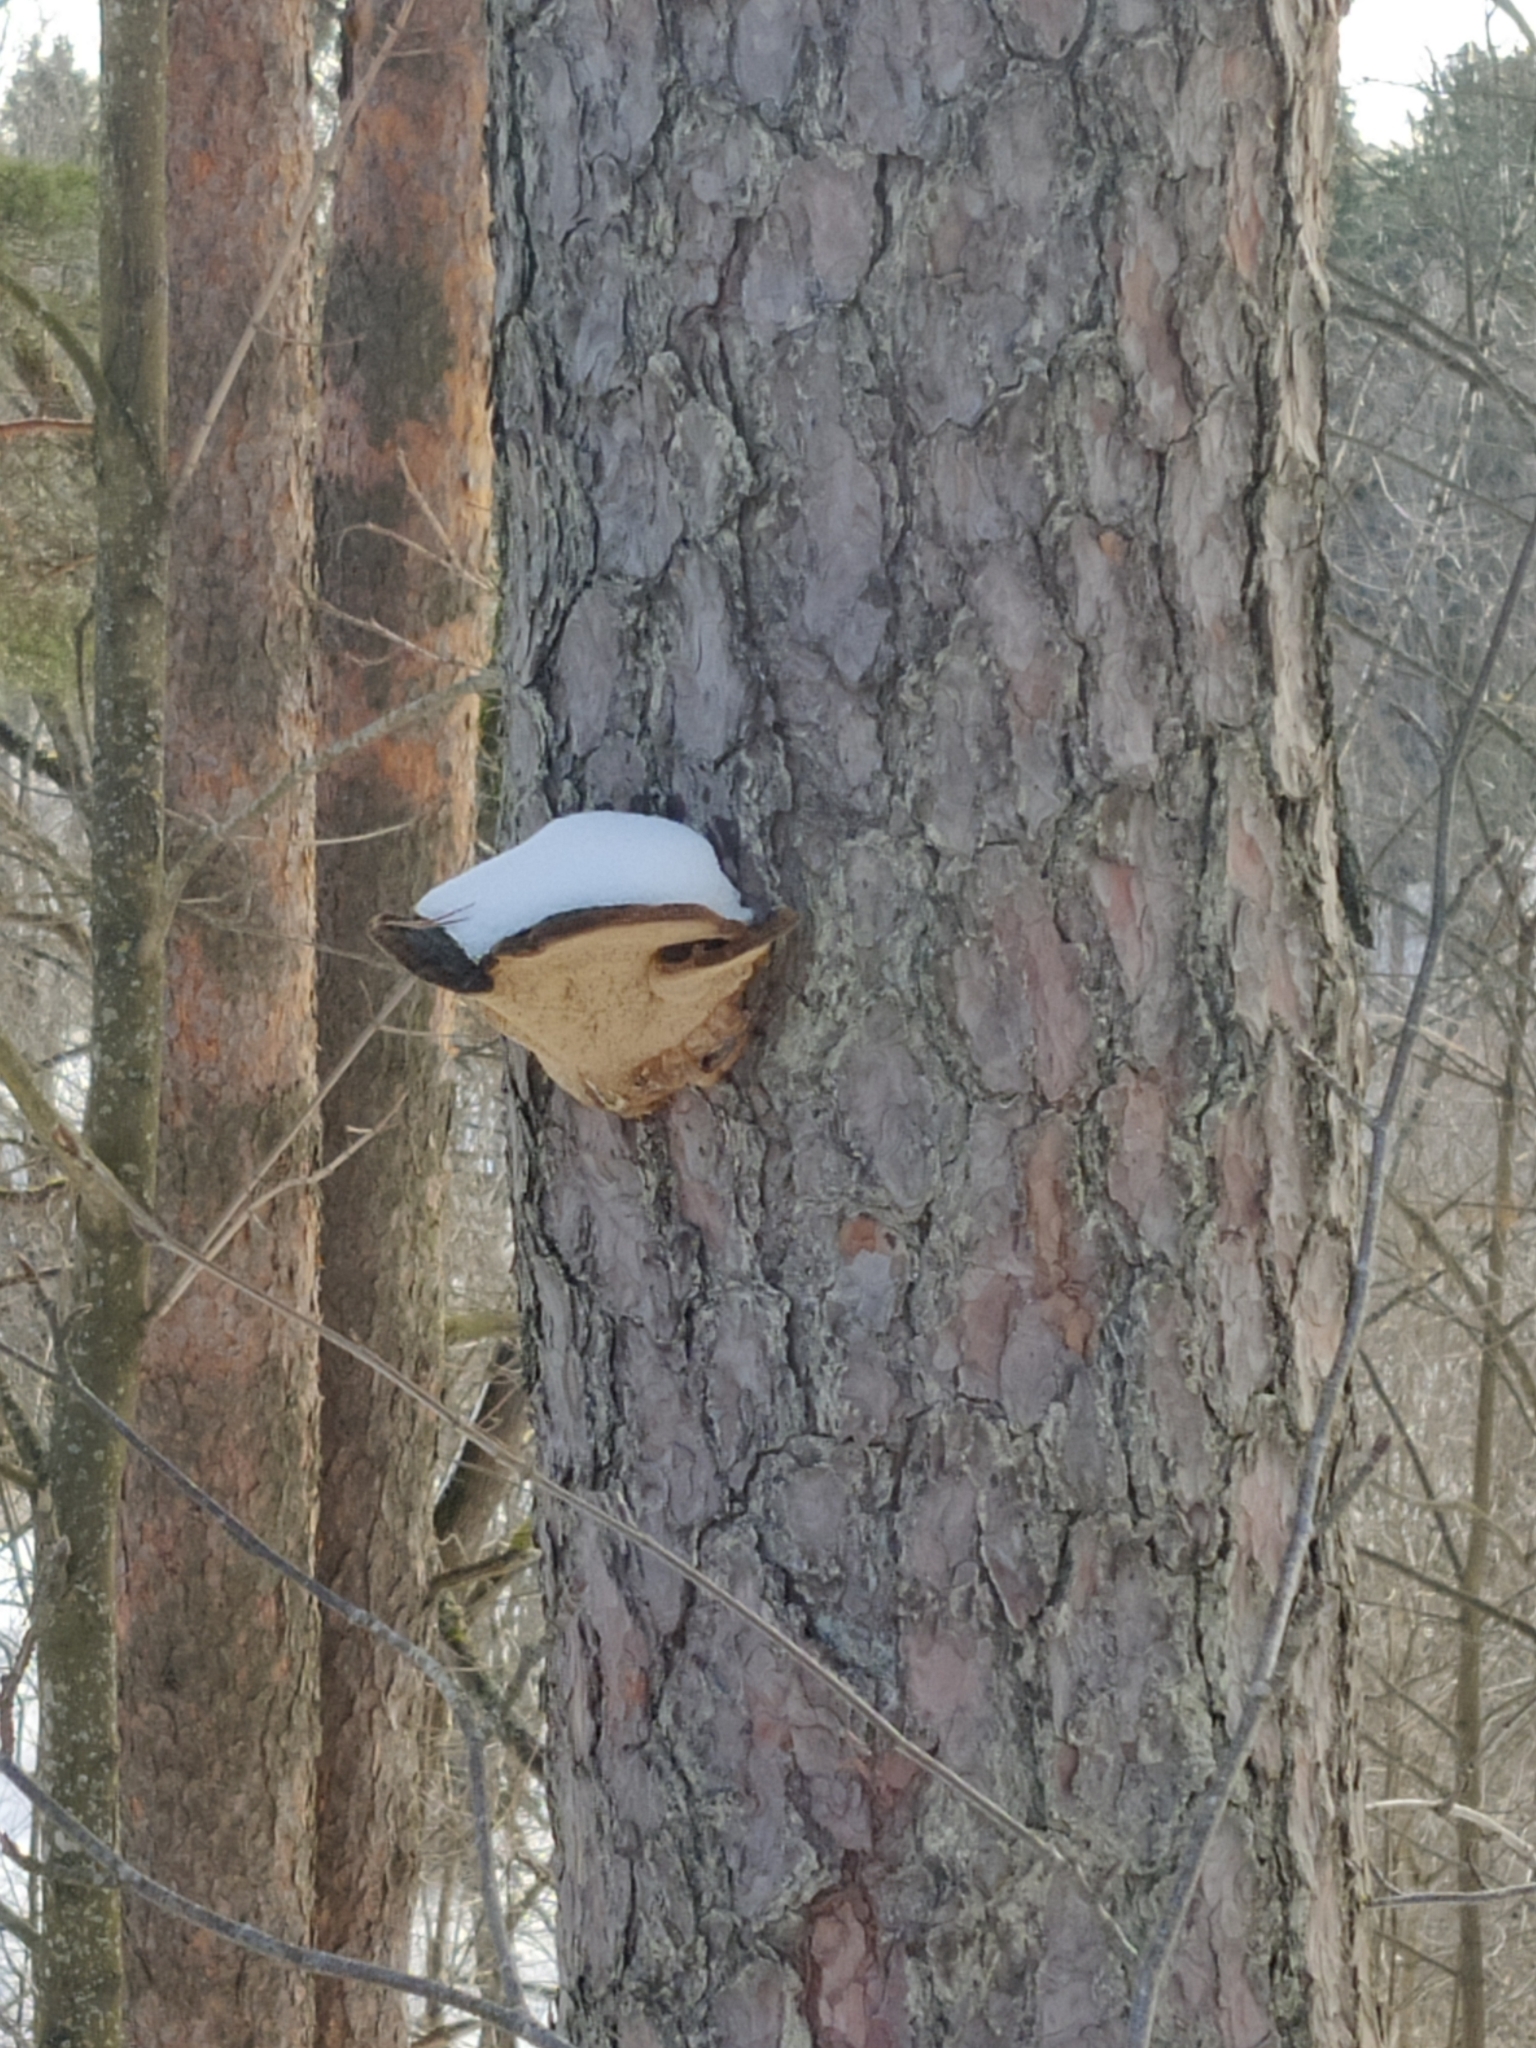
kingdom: Fungi
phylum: Basidiomycota
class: Agaricomycetes
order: Hymenochaetales
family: Hymenochaetaceae
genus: Porodaedalea
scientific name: Porodaedalea pini
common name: Pine bracket
